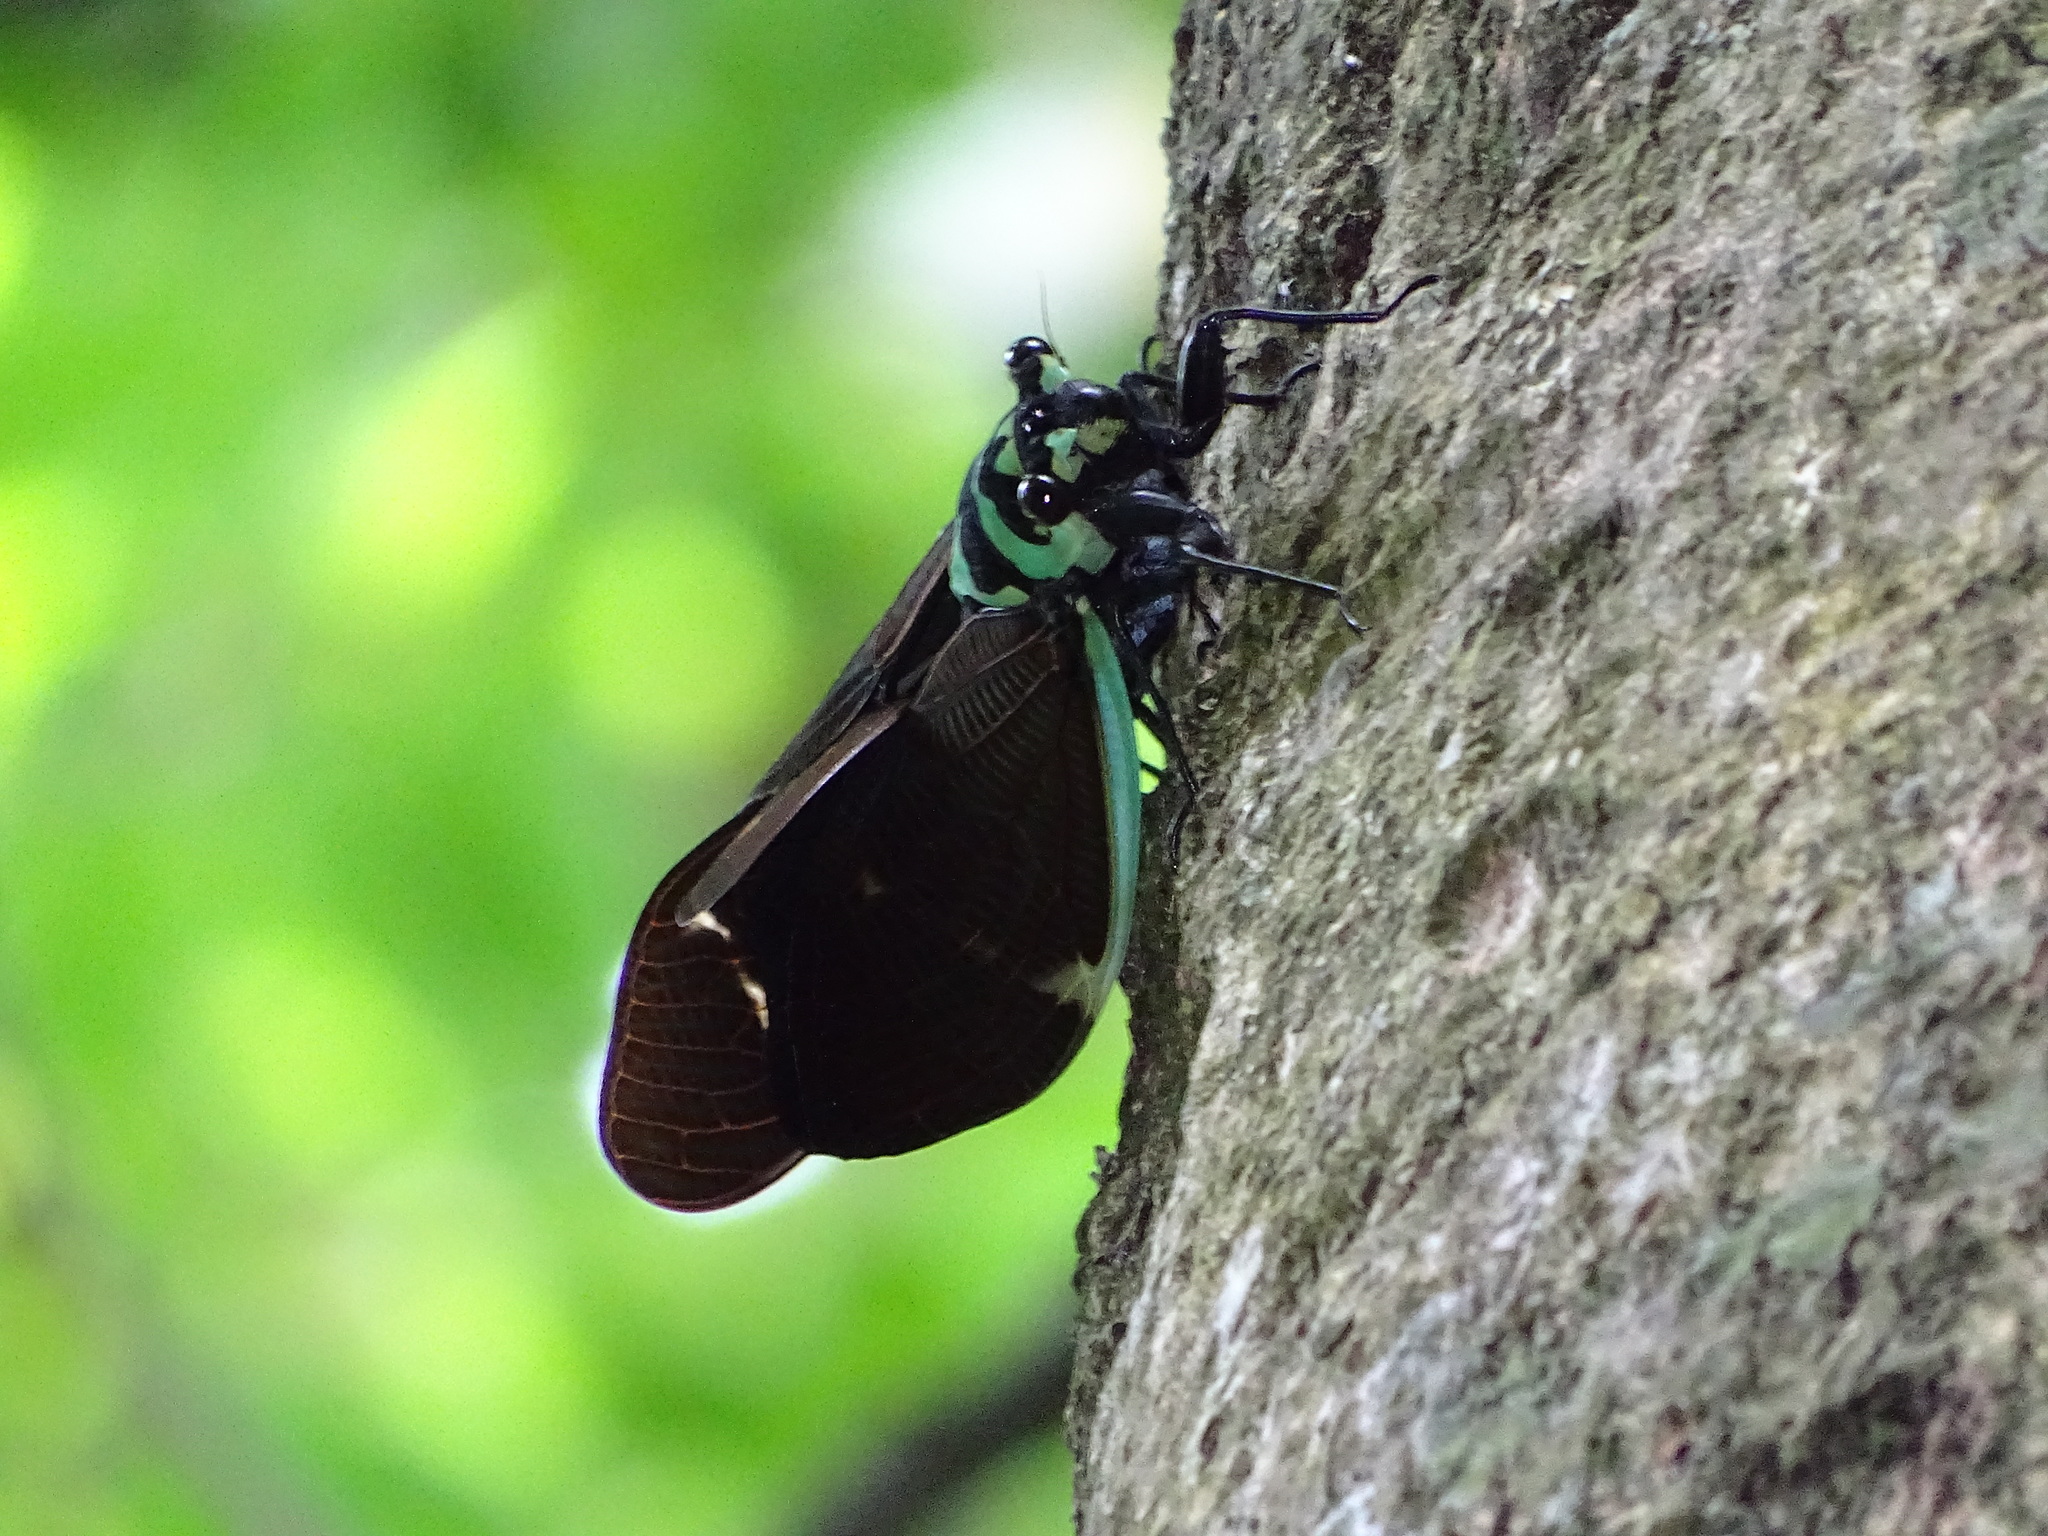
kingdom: Animalia
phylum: Arthropoda
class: Insecta
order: Hemiptera
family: Cicadidae
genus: Formotosena
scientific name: Formotosena seebohmi
